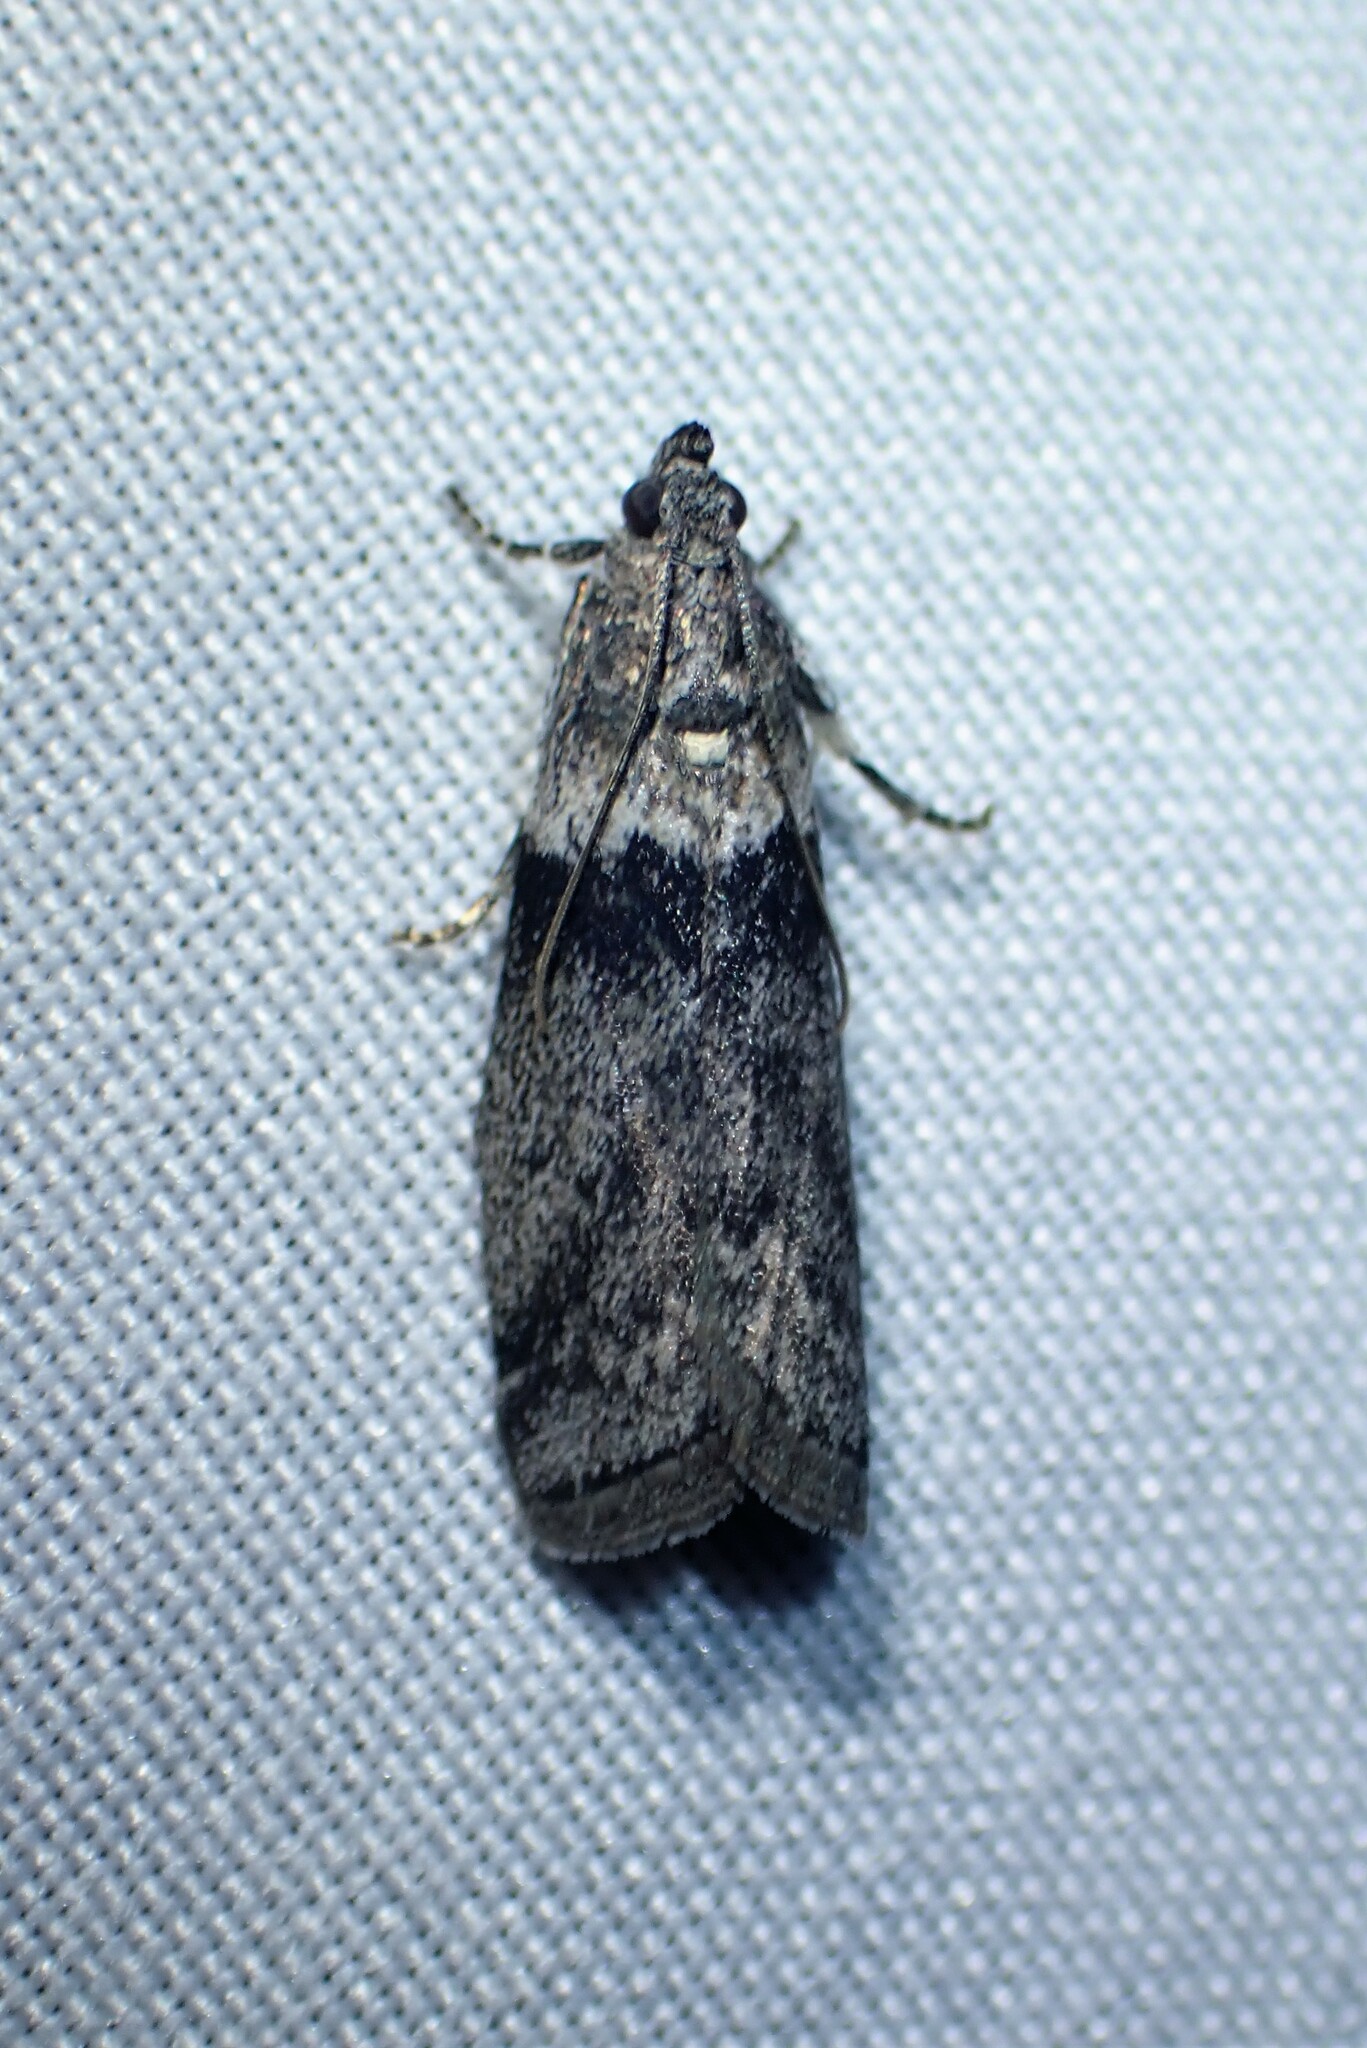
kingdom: Animalia
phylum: Arthropoda
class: Insecta
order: Lepidoptera
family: Pyralidae
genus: Meroptera
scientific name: Meroptera pravella
